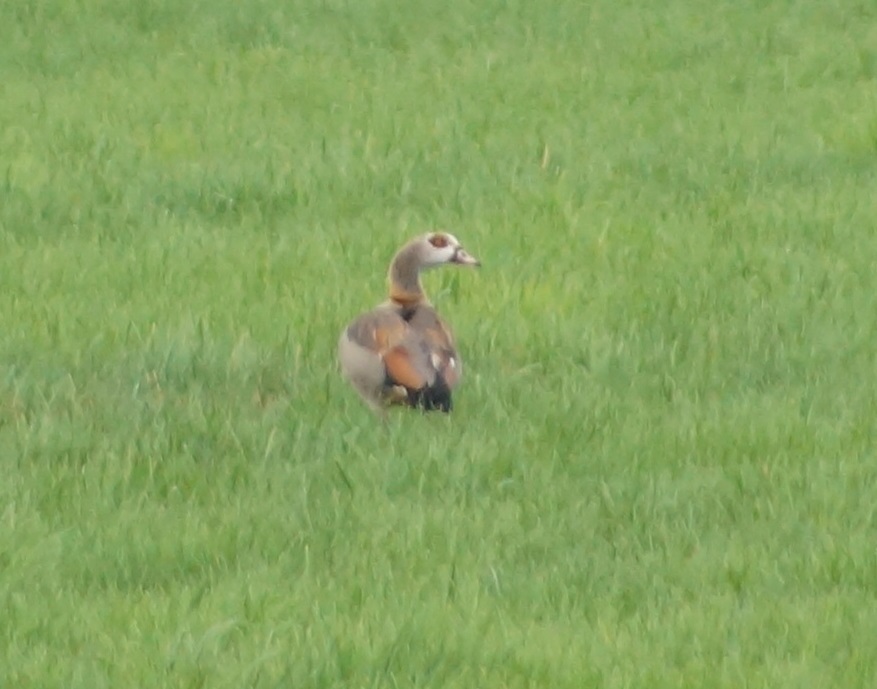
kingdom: Animalia
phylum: Chordata
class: Aves
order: Anseriformes
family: Anatidae
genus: Alopochen
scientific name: Alopochen aegyptiaca
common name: Egyptian goose
